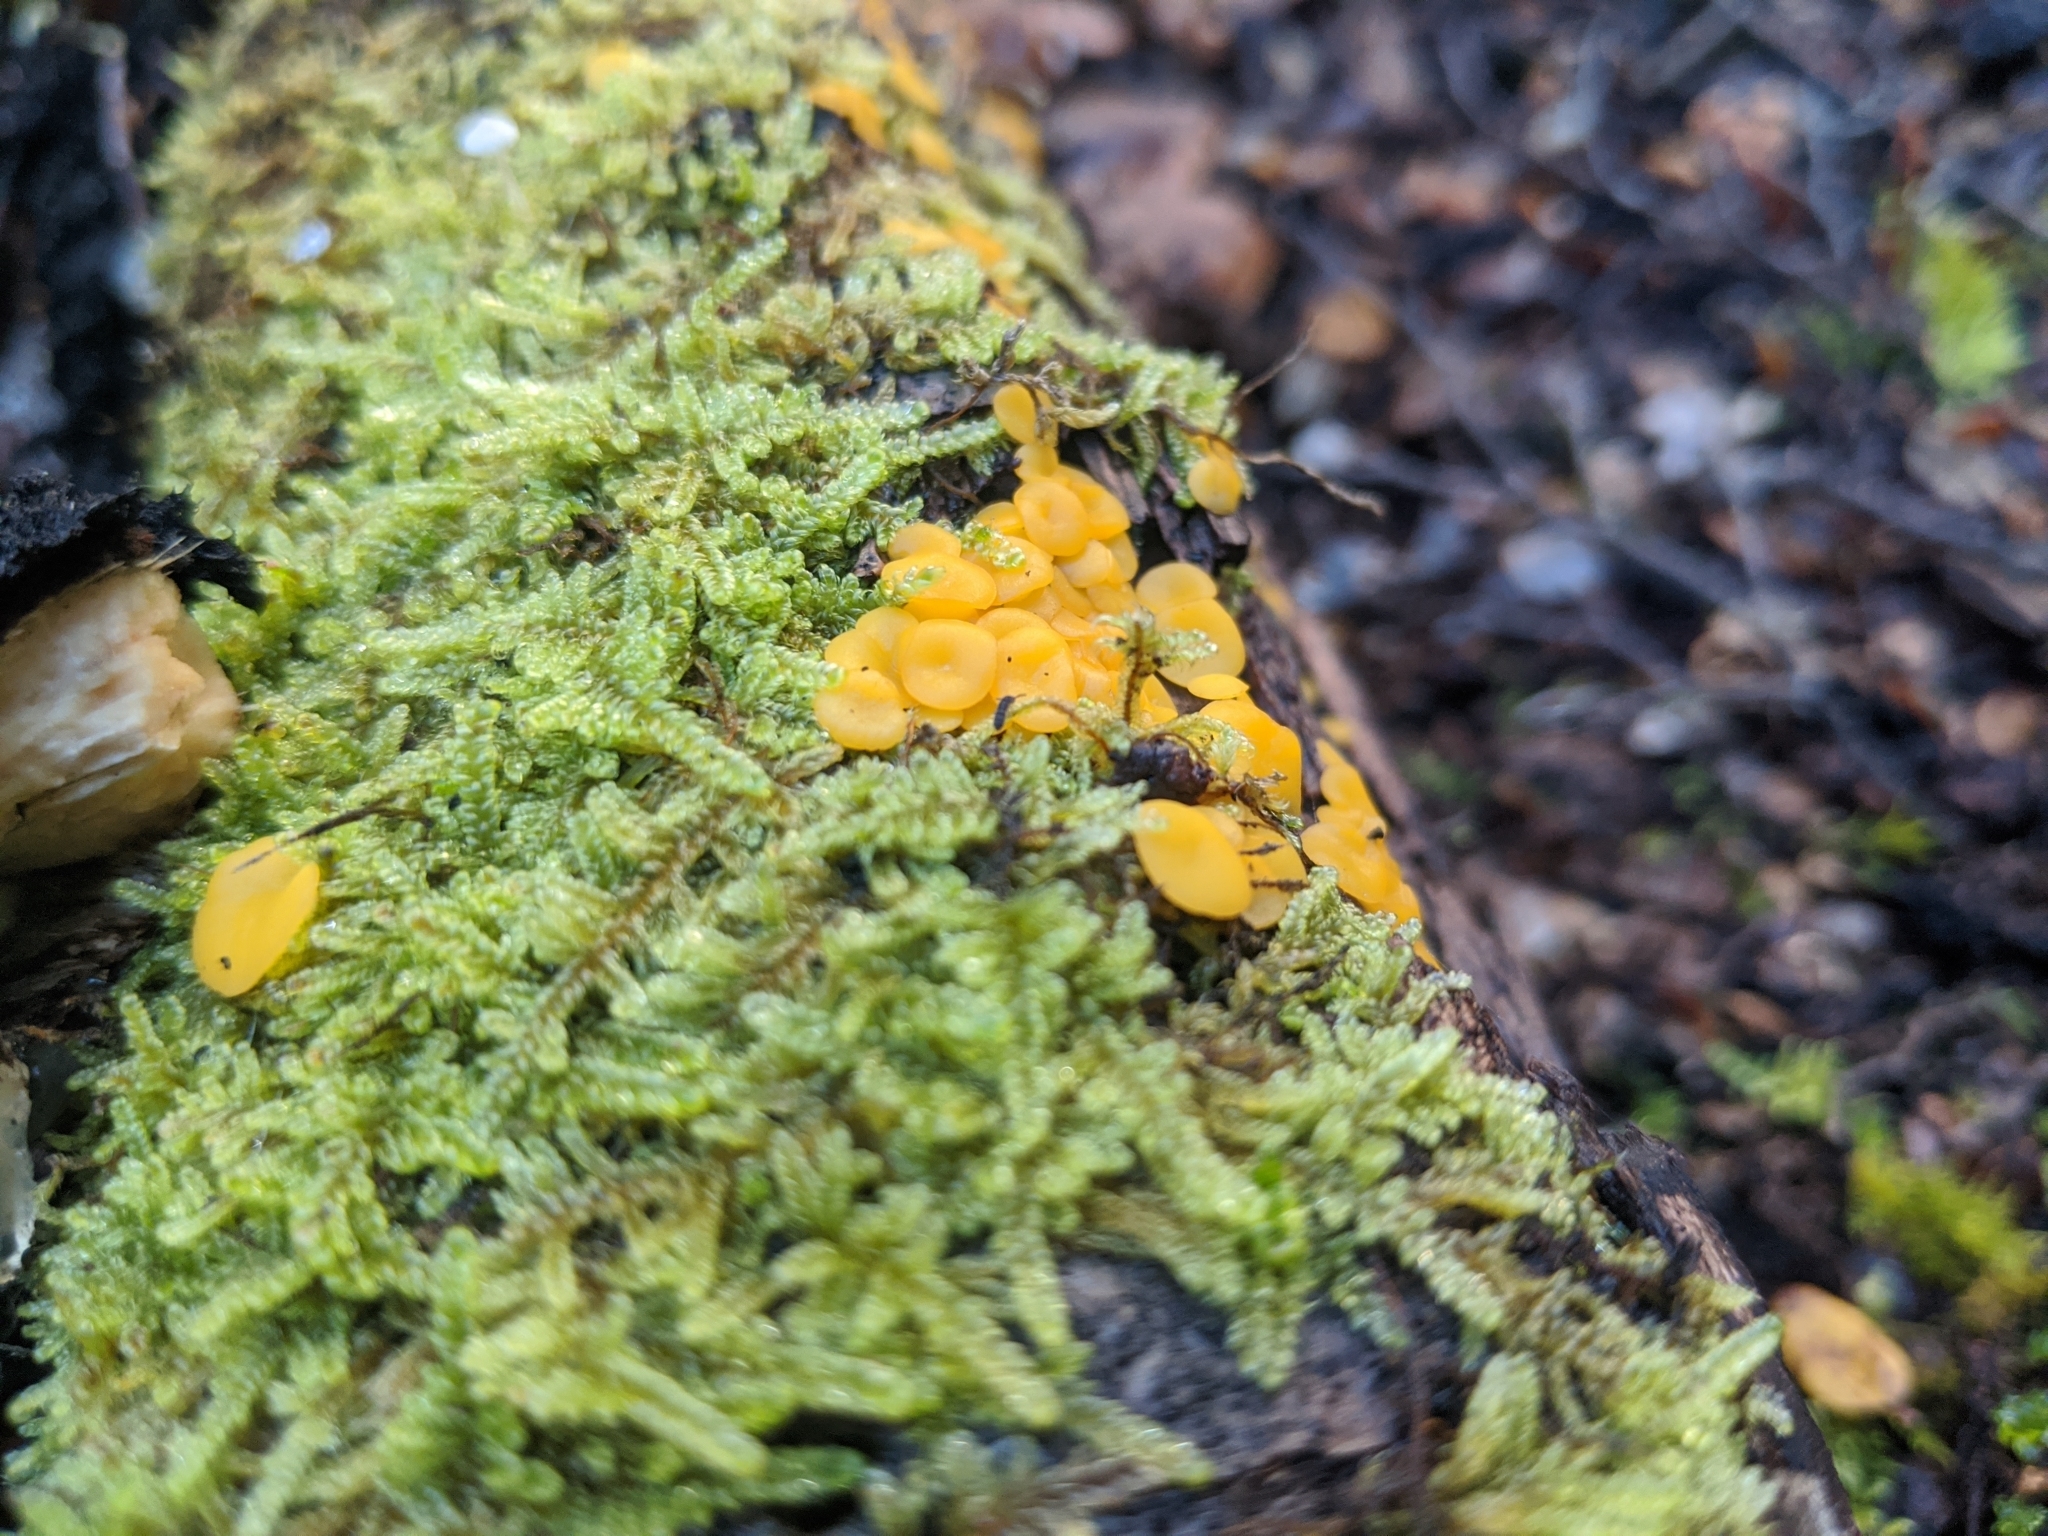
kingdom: Fungi
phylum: Ascomycota
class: Leotiomycetes
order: Helotiales
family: Pezizellaceae
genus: Calycina
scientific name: Calycina citrina
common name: Yellow fairy cups
